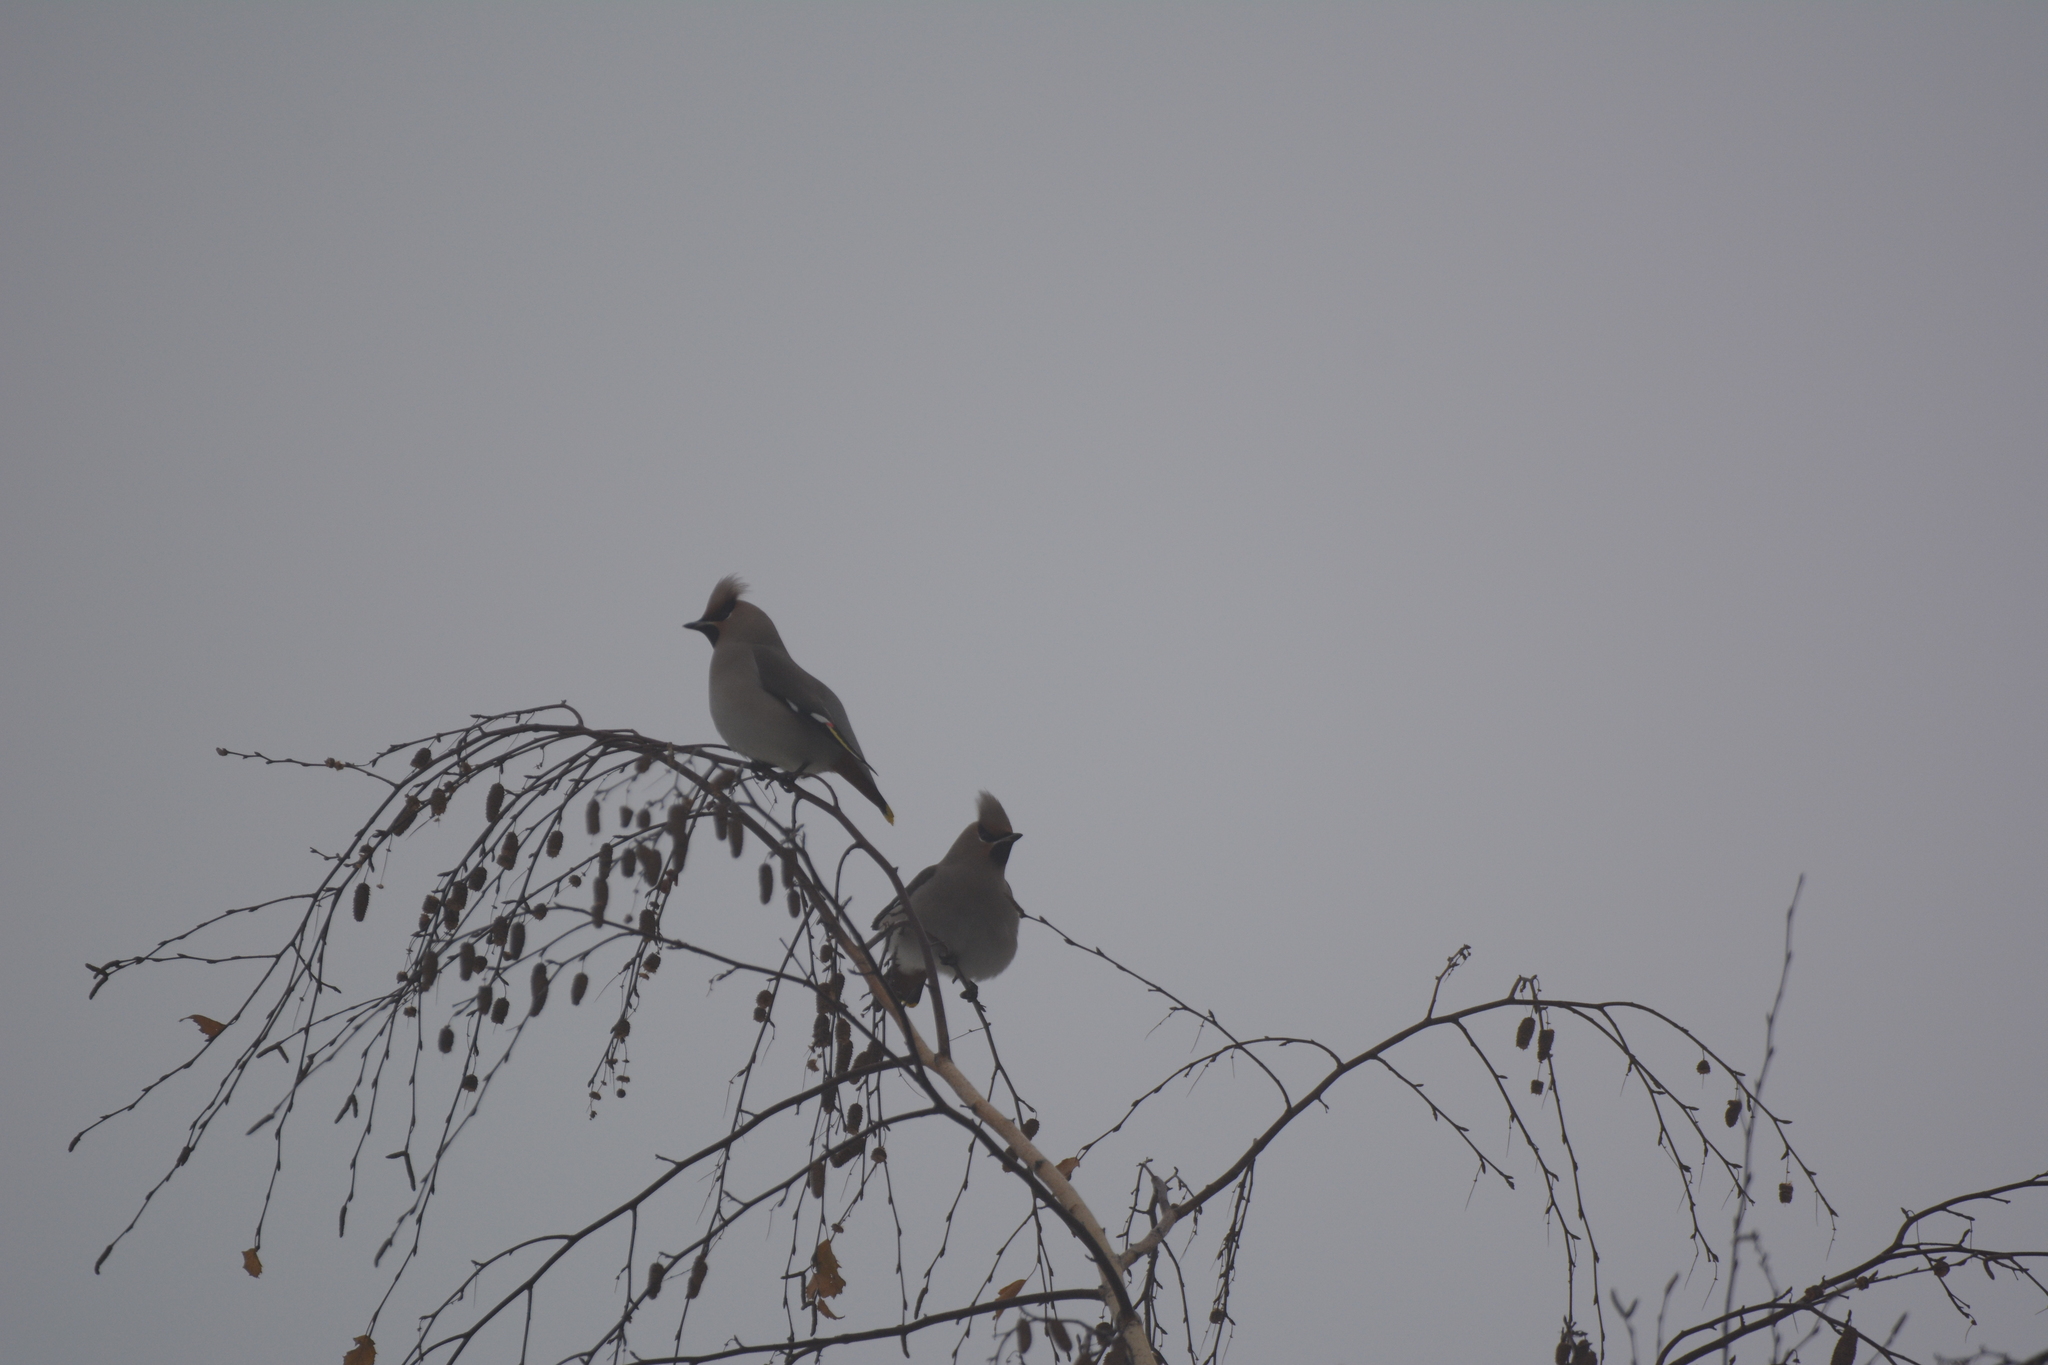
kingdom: Animalia
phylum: Chordata
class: Aves
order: Passeriformes
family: Bombycillidae
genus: Bombycilla
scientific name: Bombycilla garrulus
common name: Bohemian waxwing
